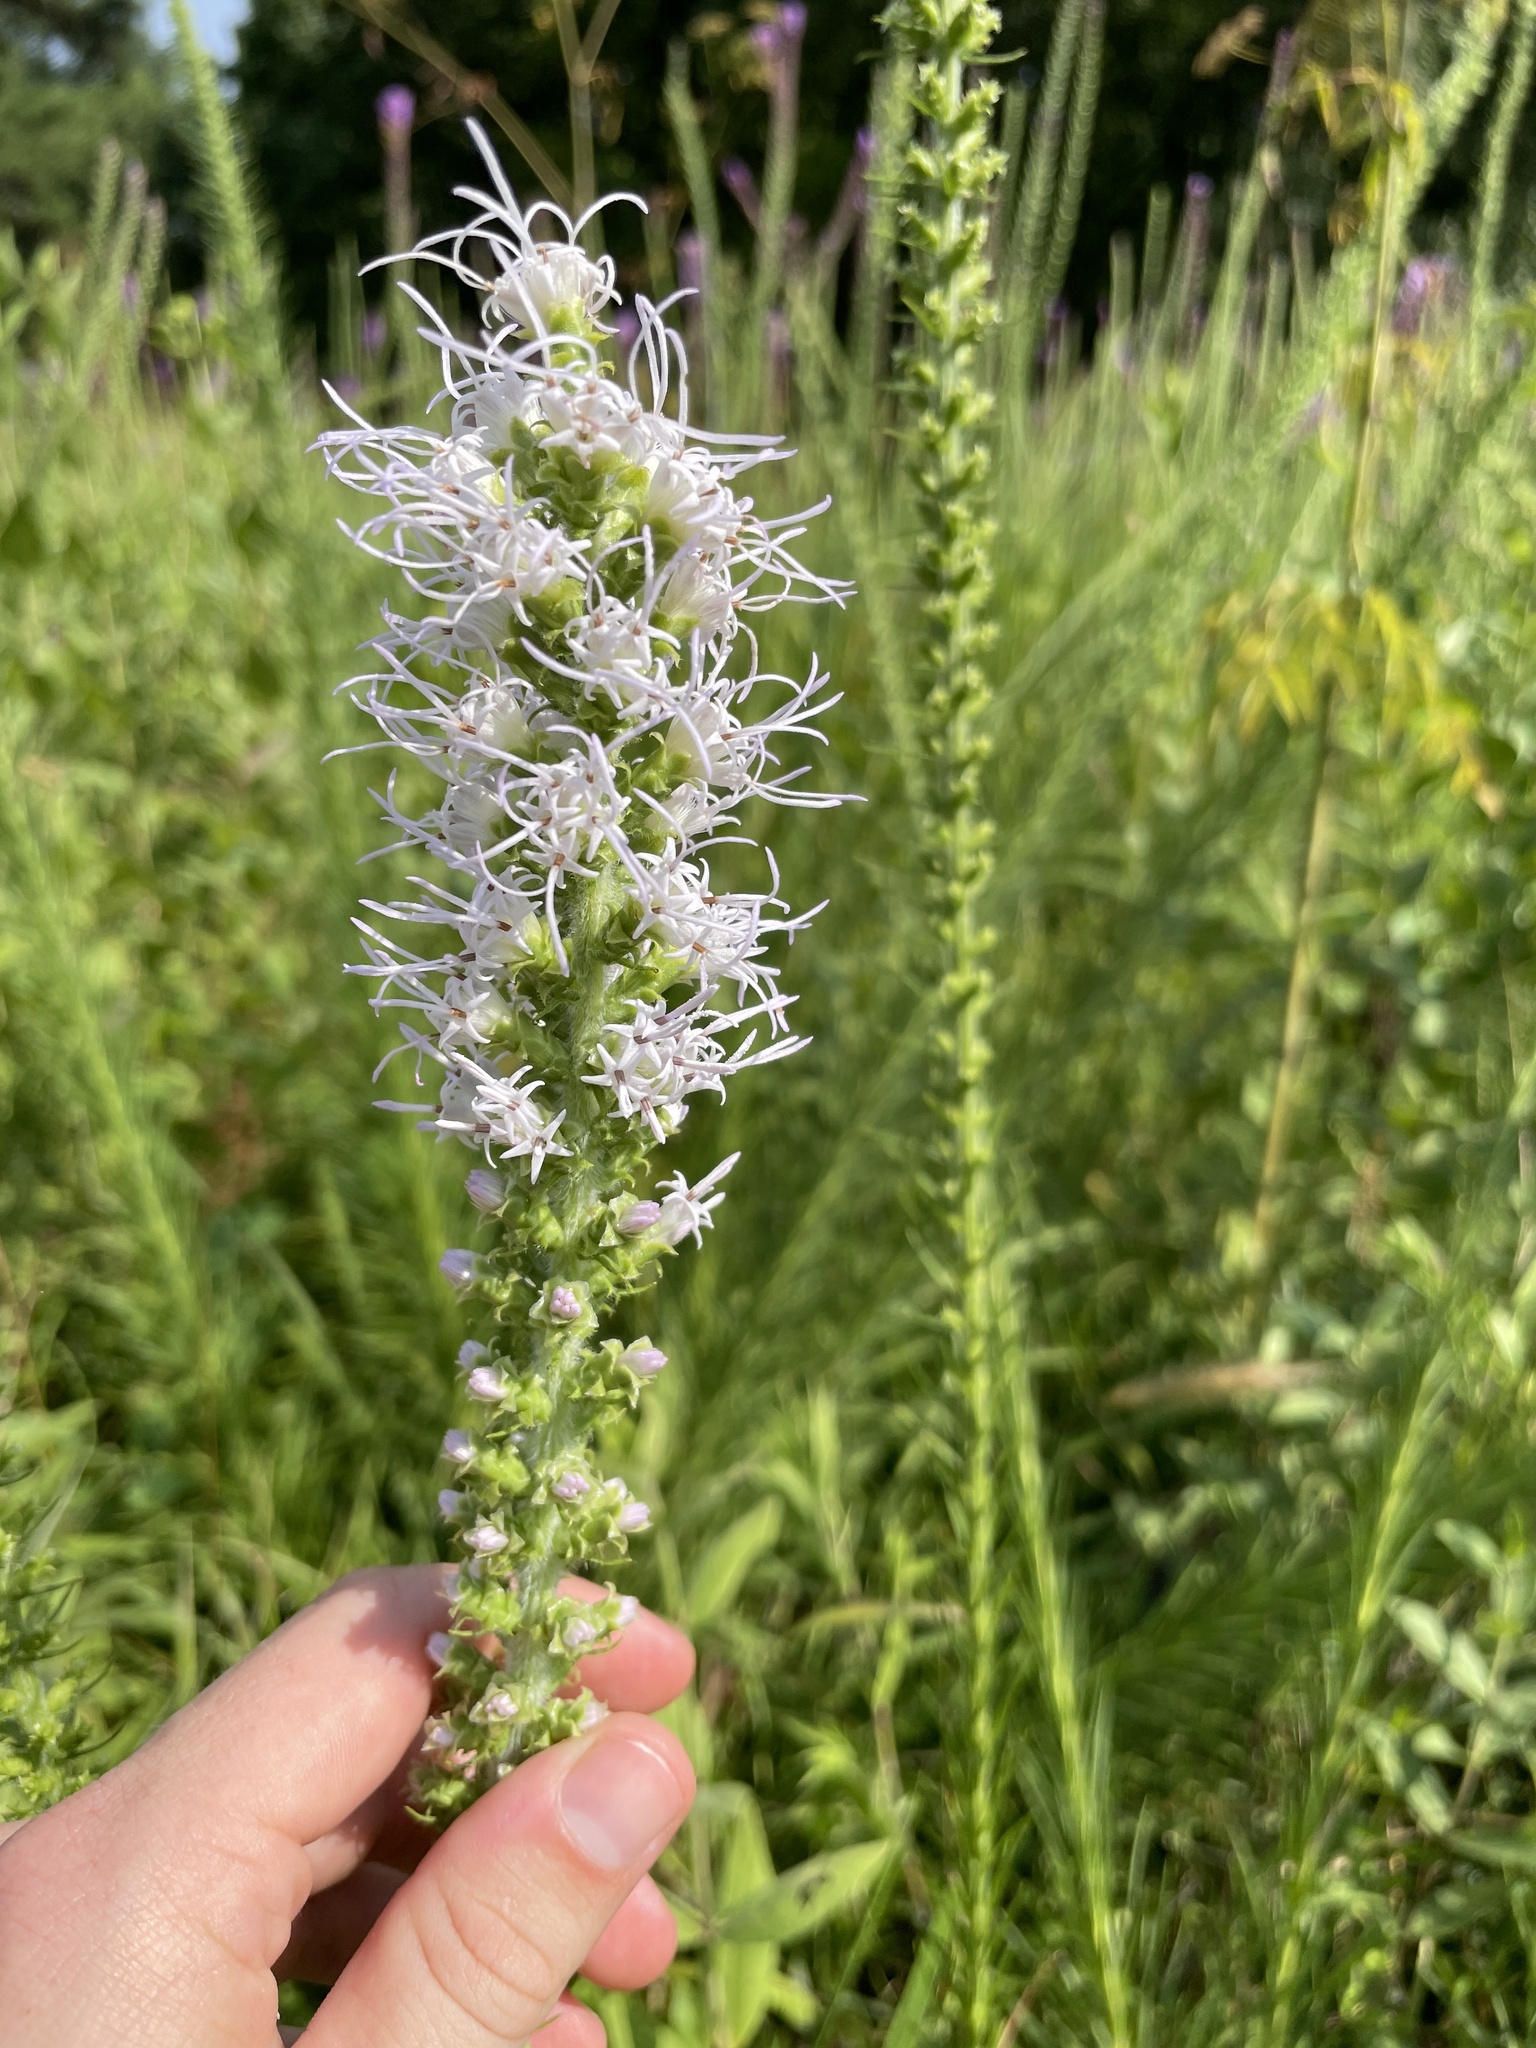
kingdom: Plantae
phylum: Tracheophyta
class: Magnoliopsida
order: Asterales
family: Asteraceae
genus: Liatris
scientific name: Liatris pycnostachya
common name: Cattail gayfeather
